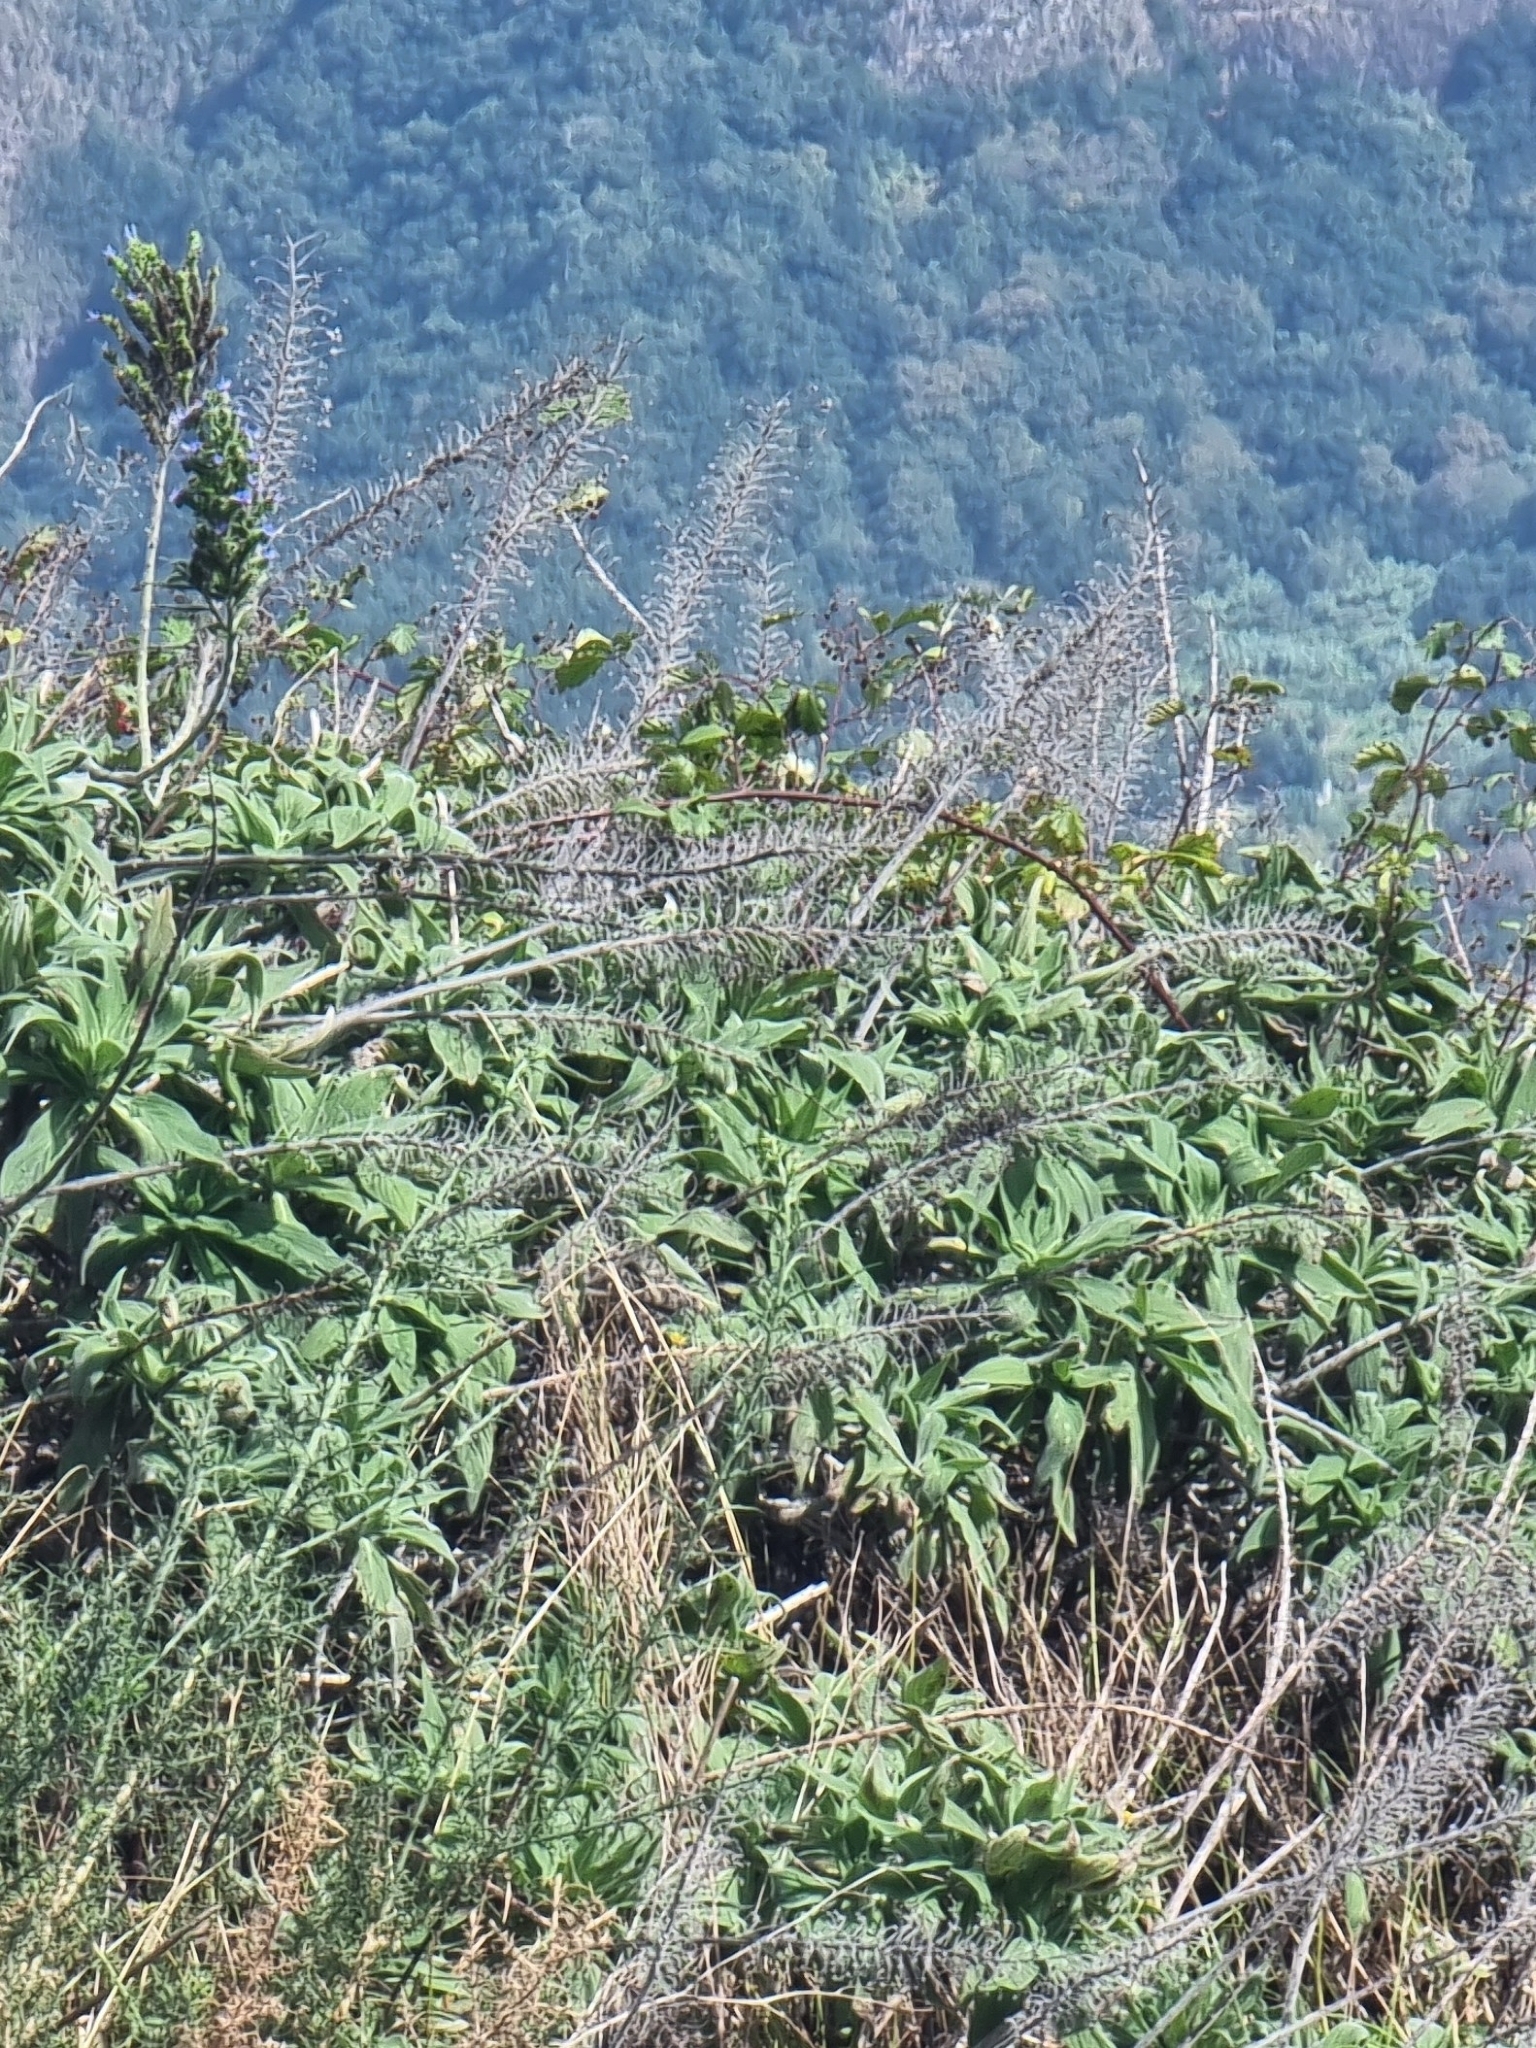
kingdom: Plantae
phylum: Tracheophyta
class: Magnoliopsida
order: Boraginales
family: Boraginaceae
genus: Echium
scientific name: Echium candicans
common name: Pride of madeira
